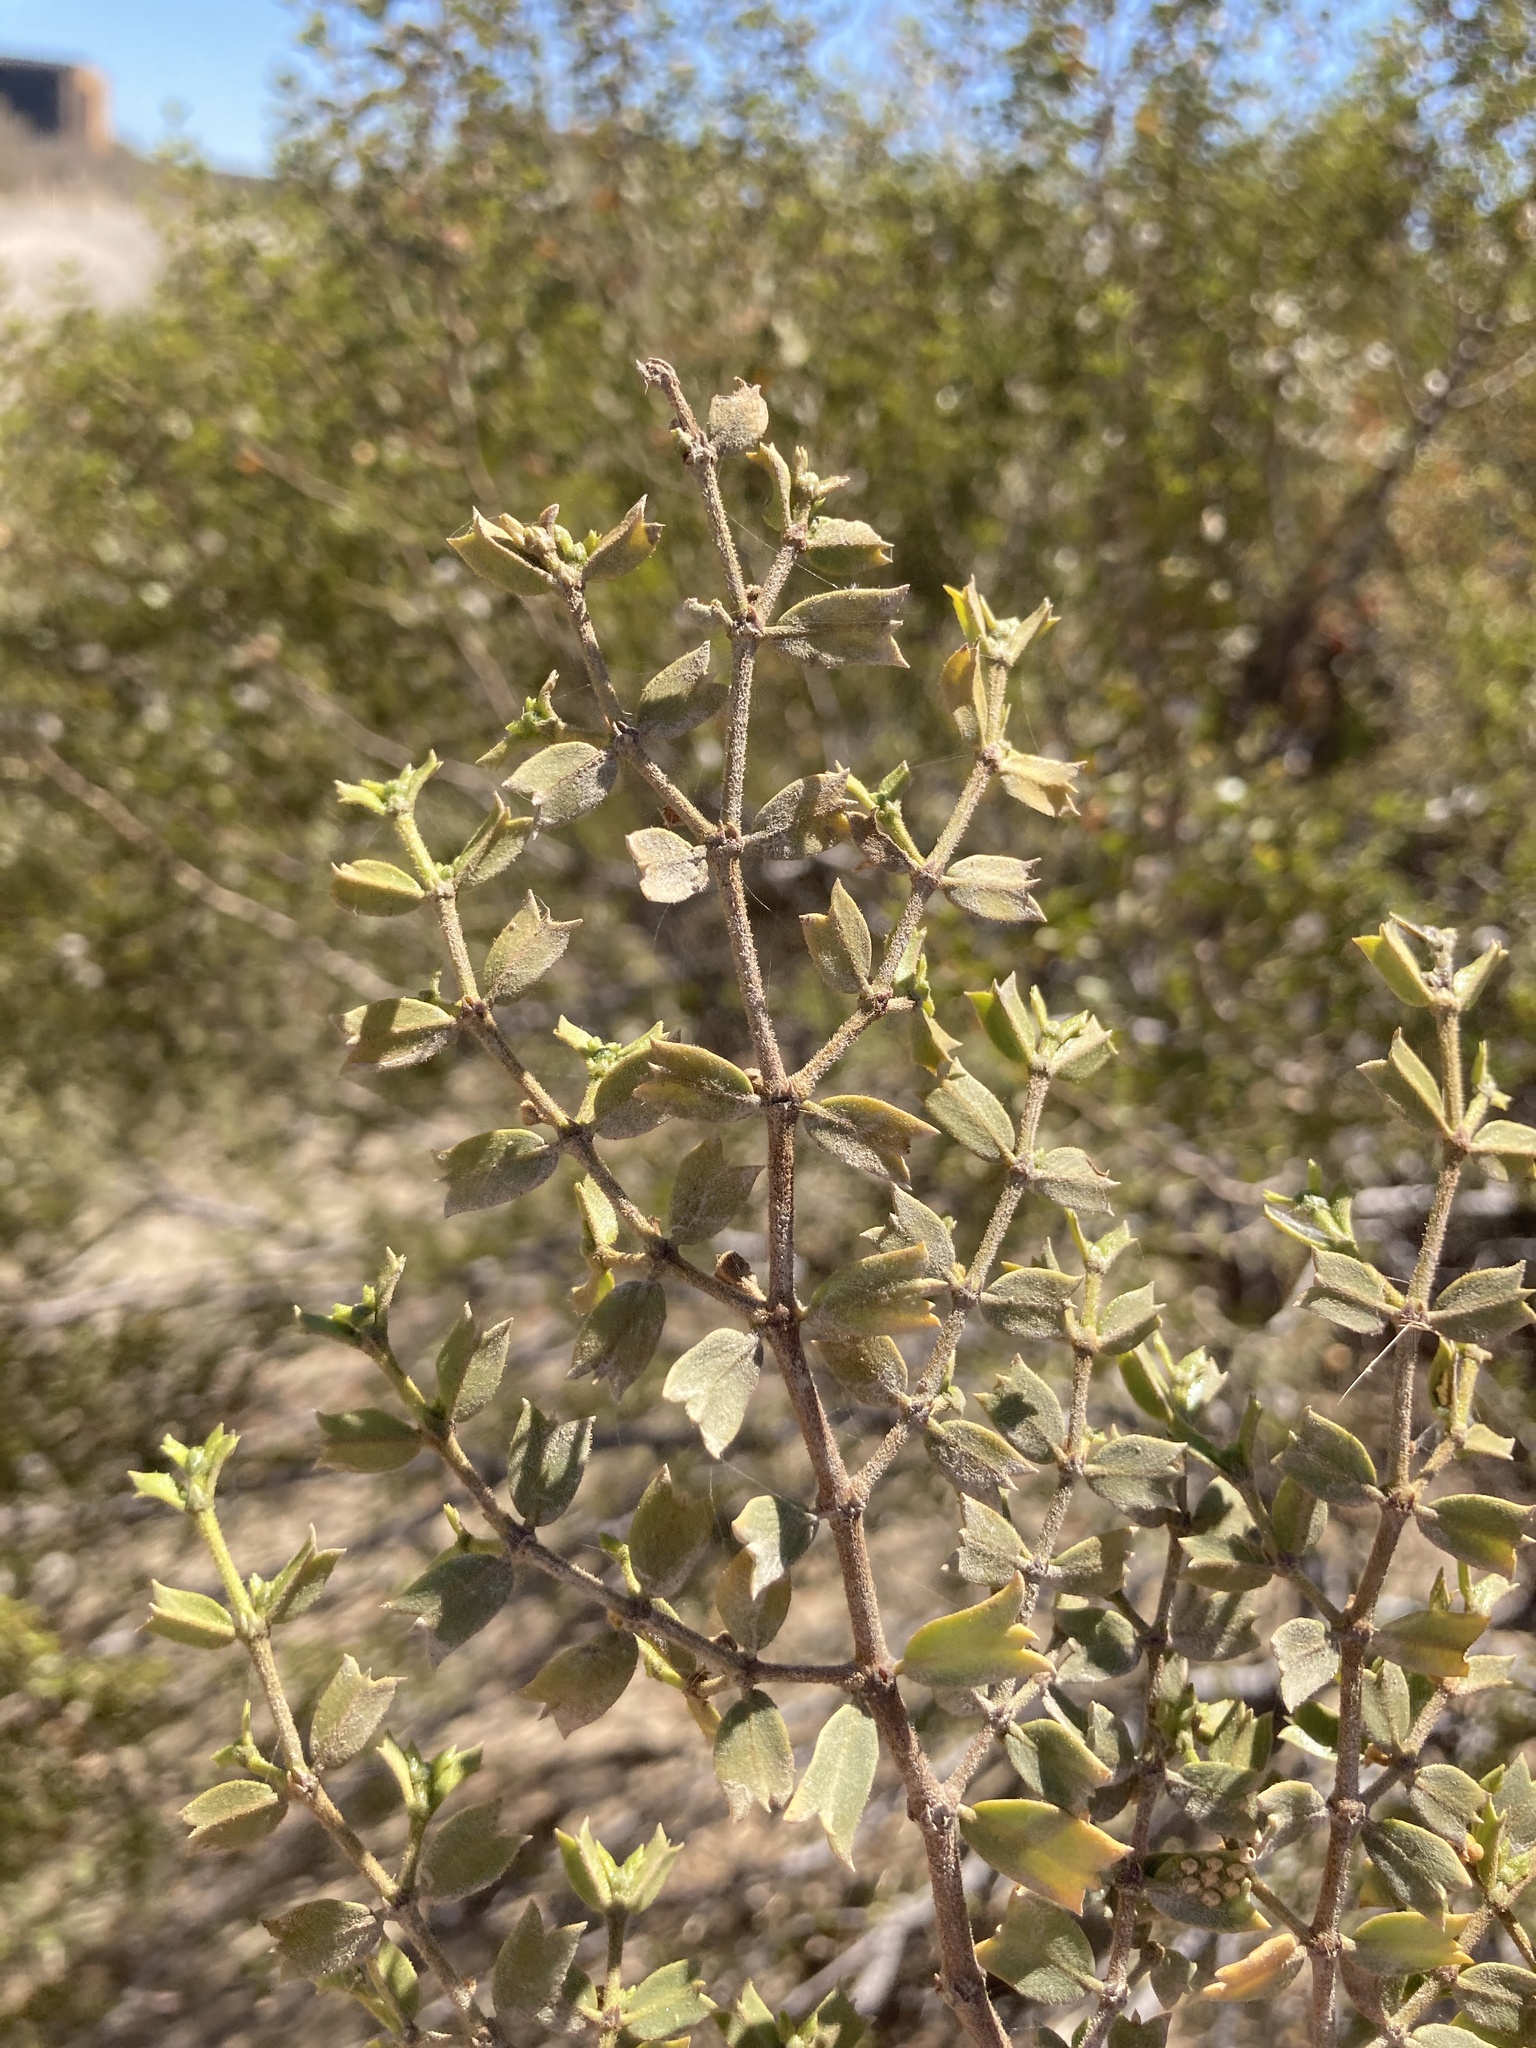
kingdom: Plantae
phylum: Tracheophyta
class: Magnoliopsida
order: Zygophyllales
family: Zygophyllaceae
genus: Larrea
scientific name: Larrea cuneifolia
